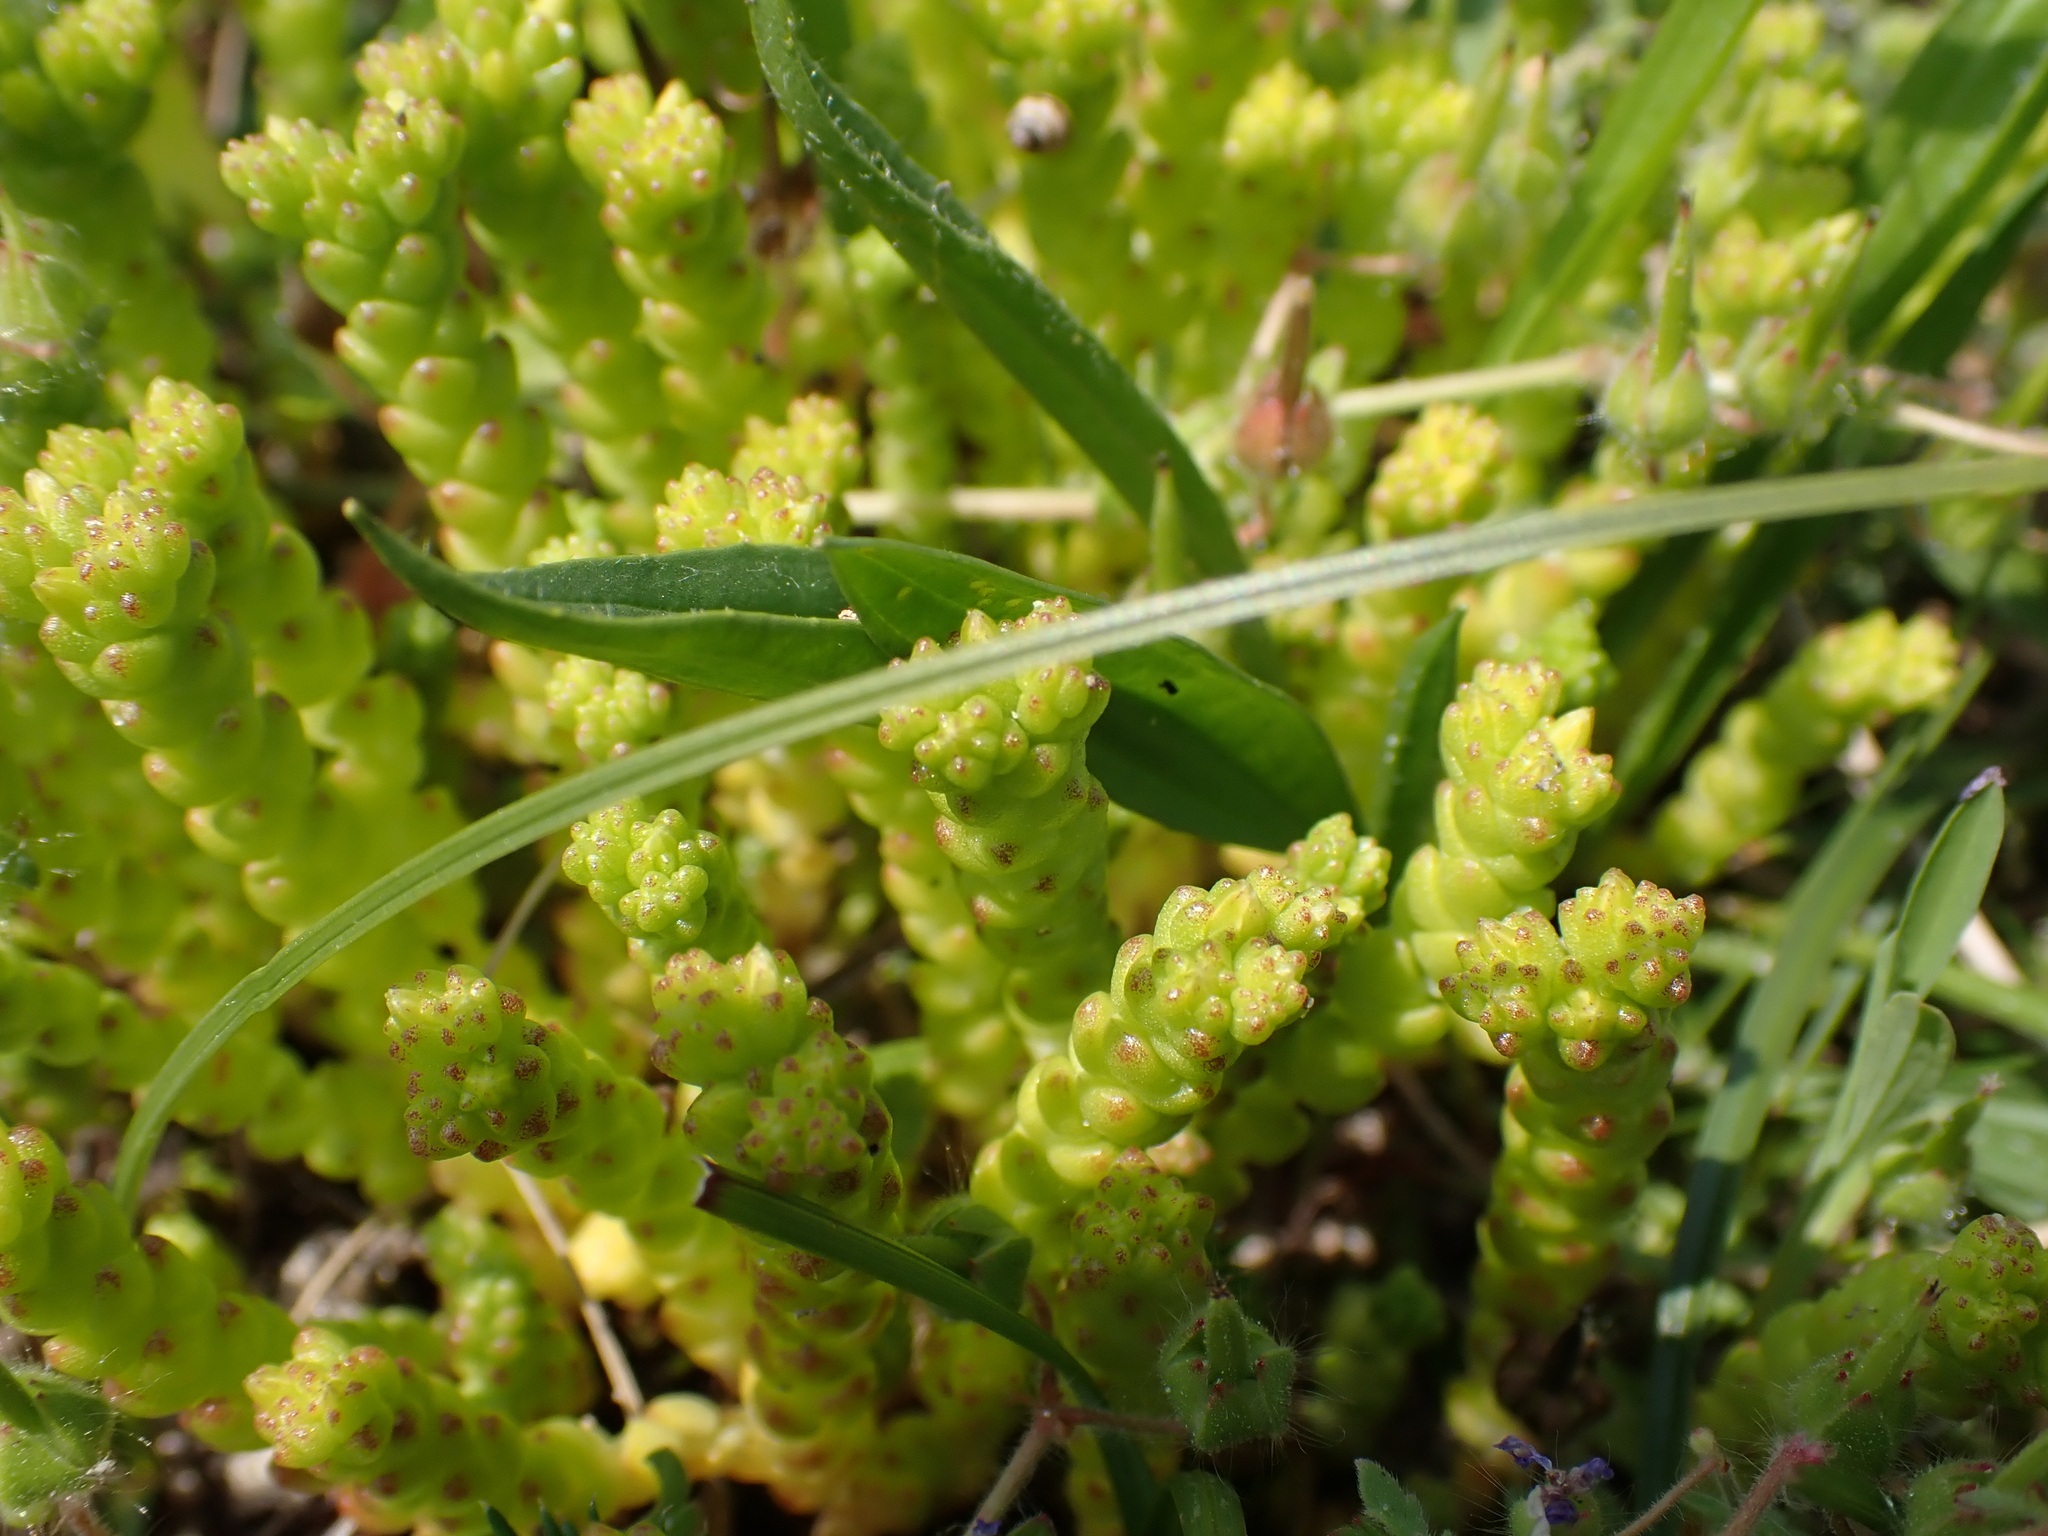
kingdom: Plantae
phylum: Tracheophyta
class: Magnoliopsida
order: Saxifragales
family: Crassulaceae
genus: Sedum
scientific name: Sedum acre
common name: Biting stonecrop
